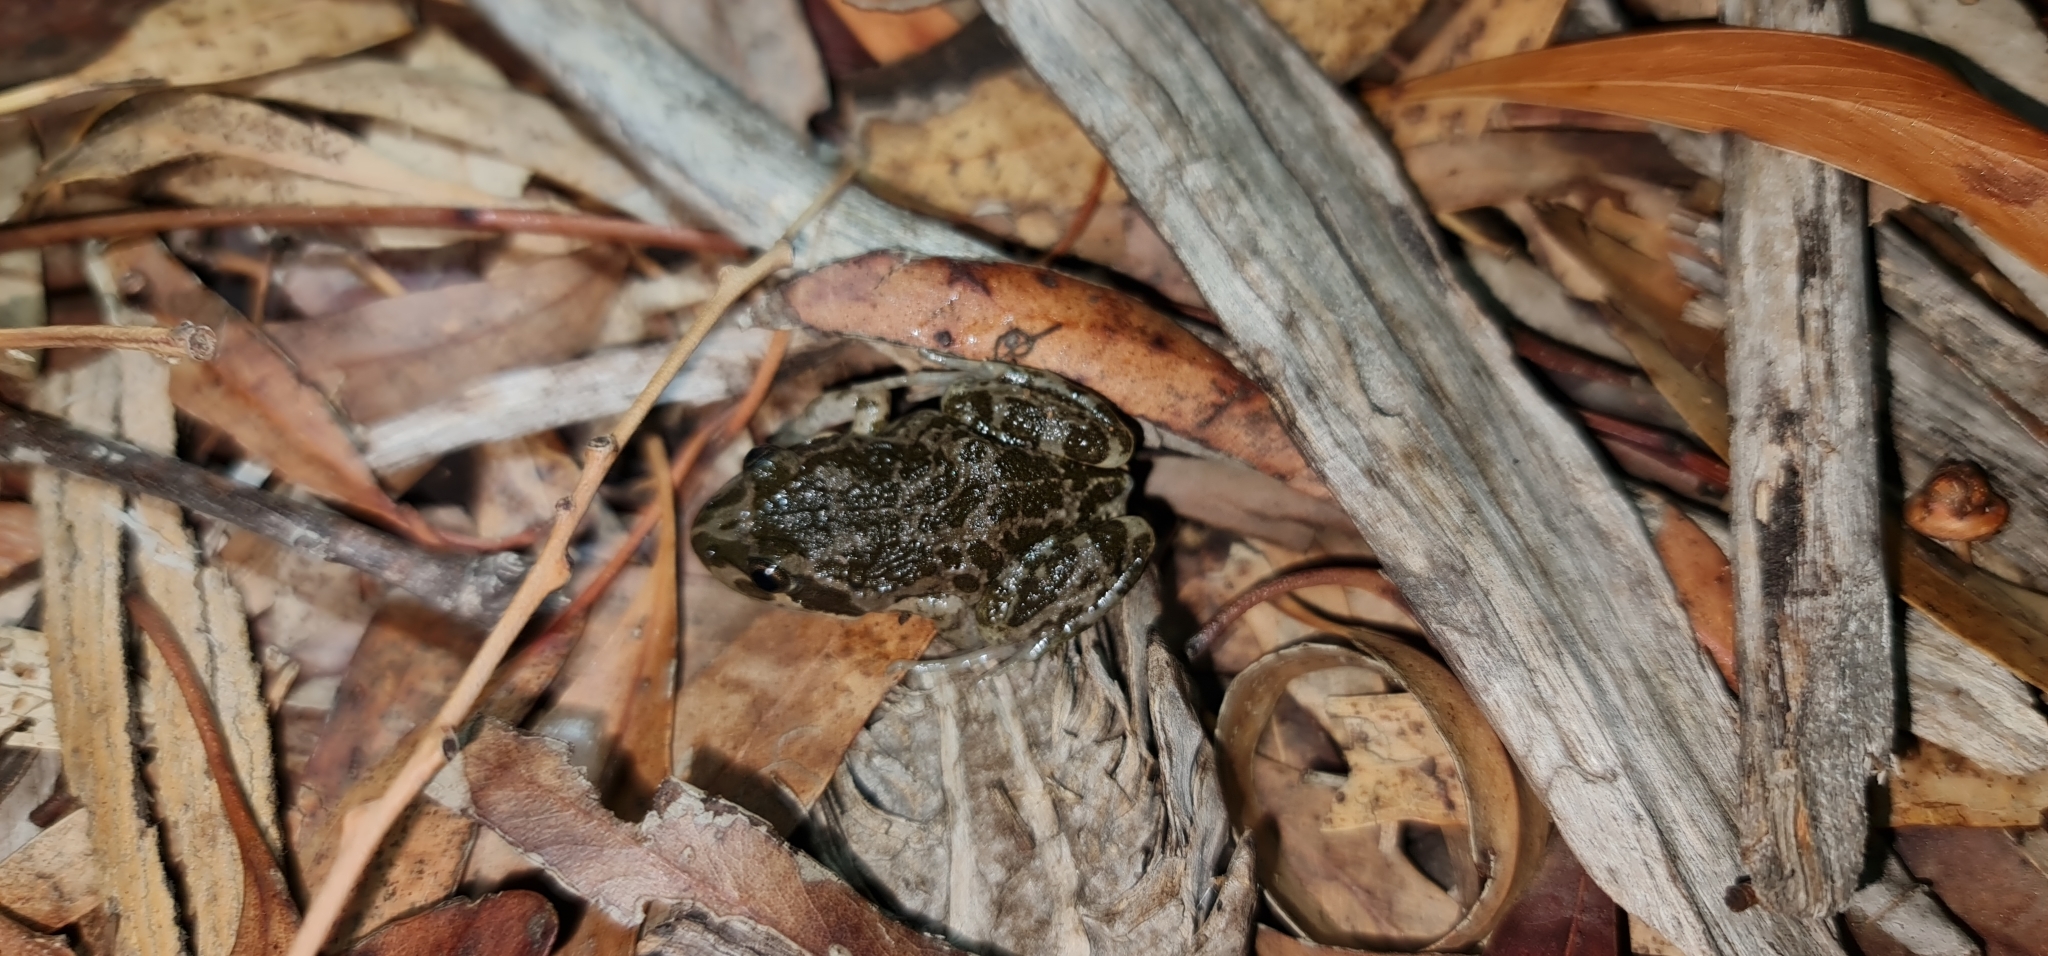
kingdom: Animalia
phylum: Chordata
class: Amphibia
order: Anura
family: Limnodynastidae
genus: Limnodynastes
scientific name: Limnodynastes tasmaniensis
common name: Spotted marsh frog
